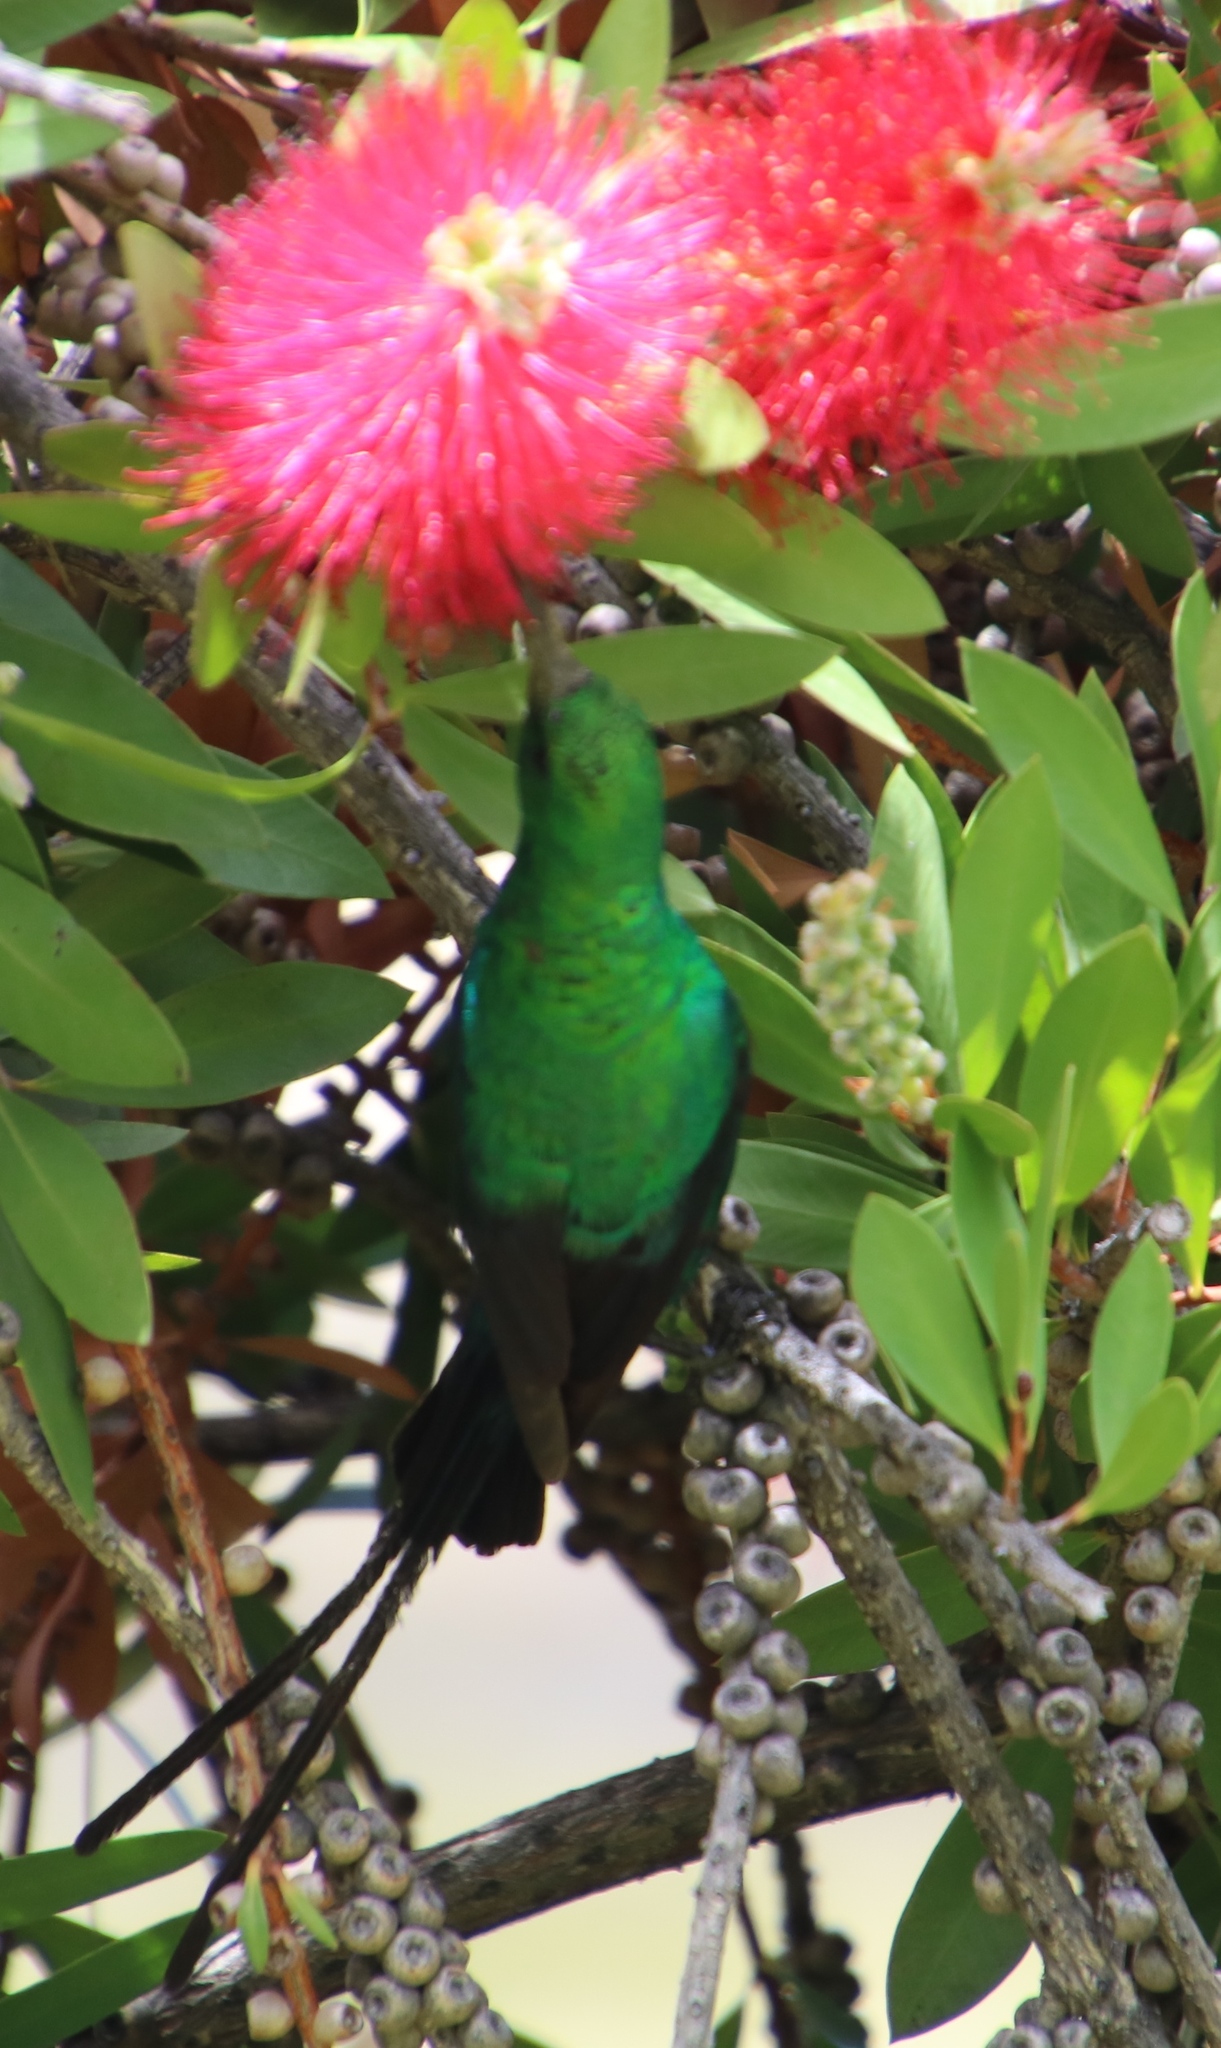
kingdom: Animalia
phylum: Chordata
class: Aves
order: Passeriformes
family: Nectariniidae
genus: Nectarinia
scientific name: Nectarinia famosa
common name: Malachite sunbird
